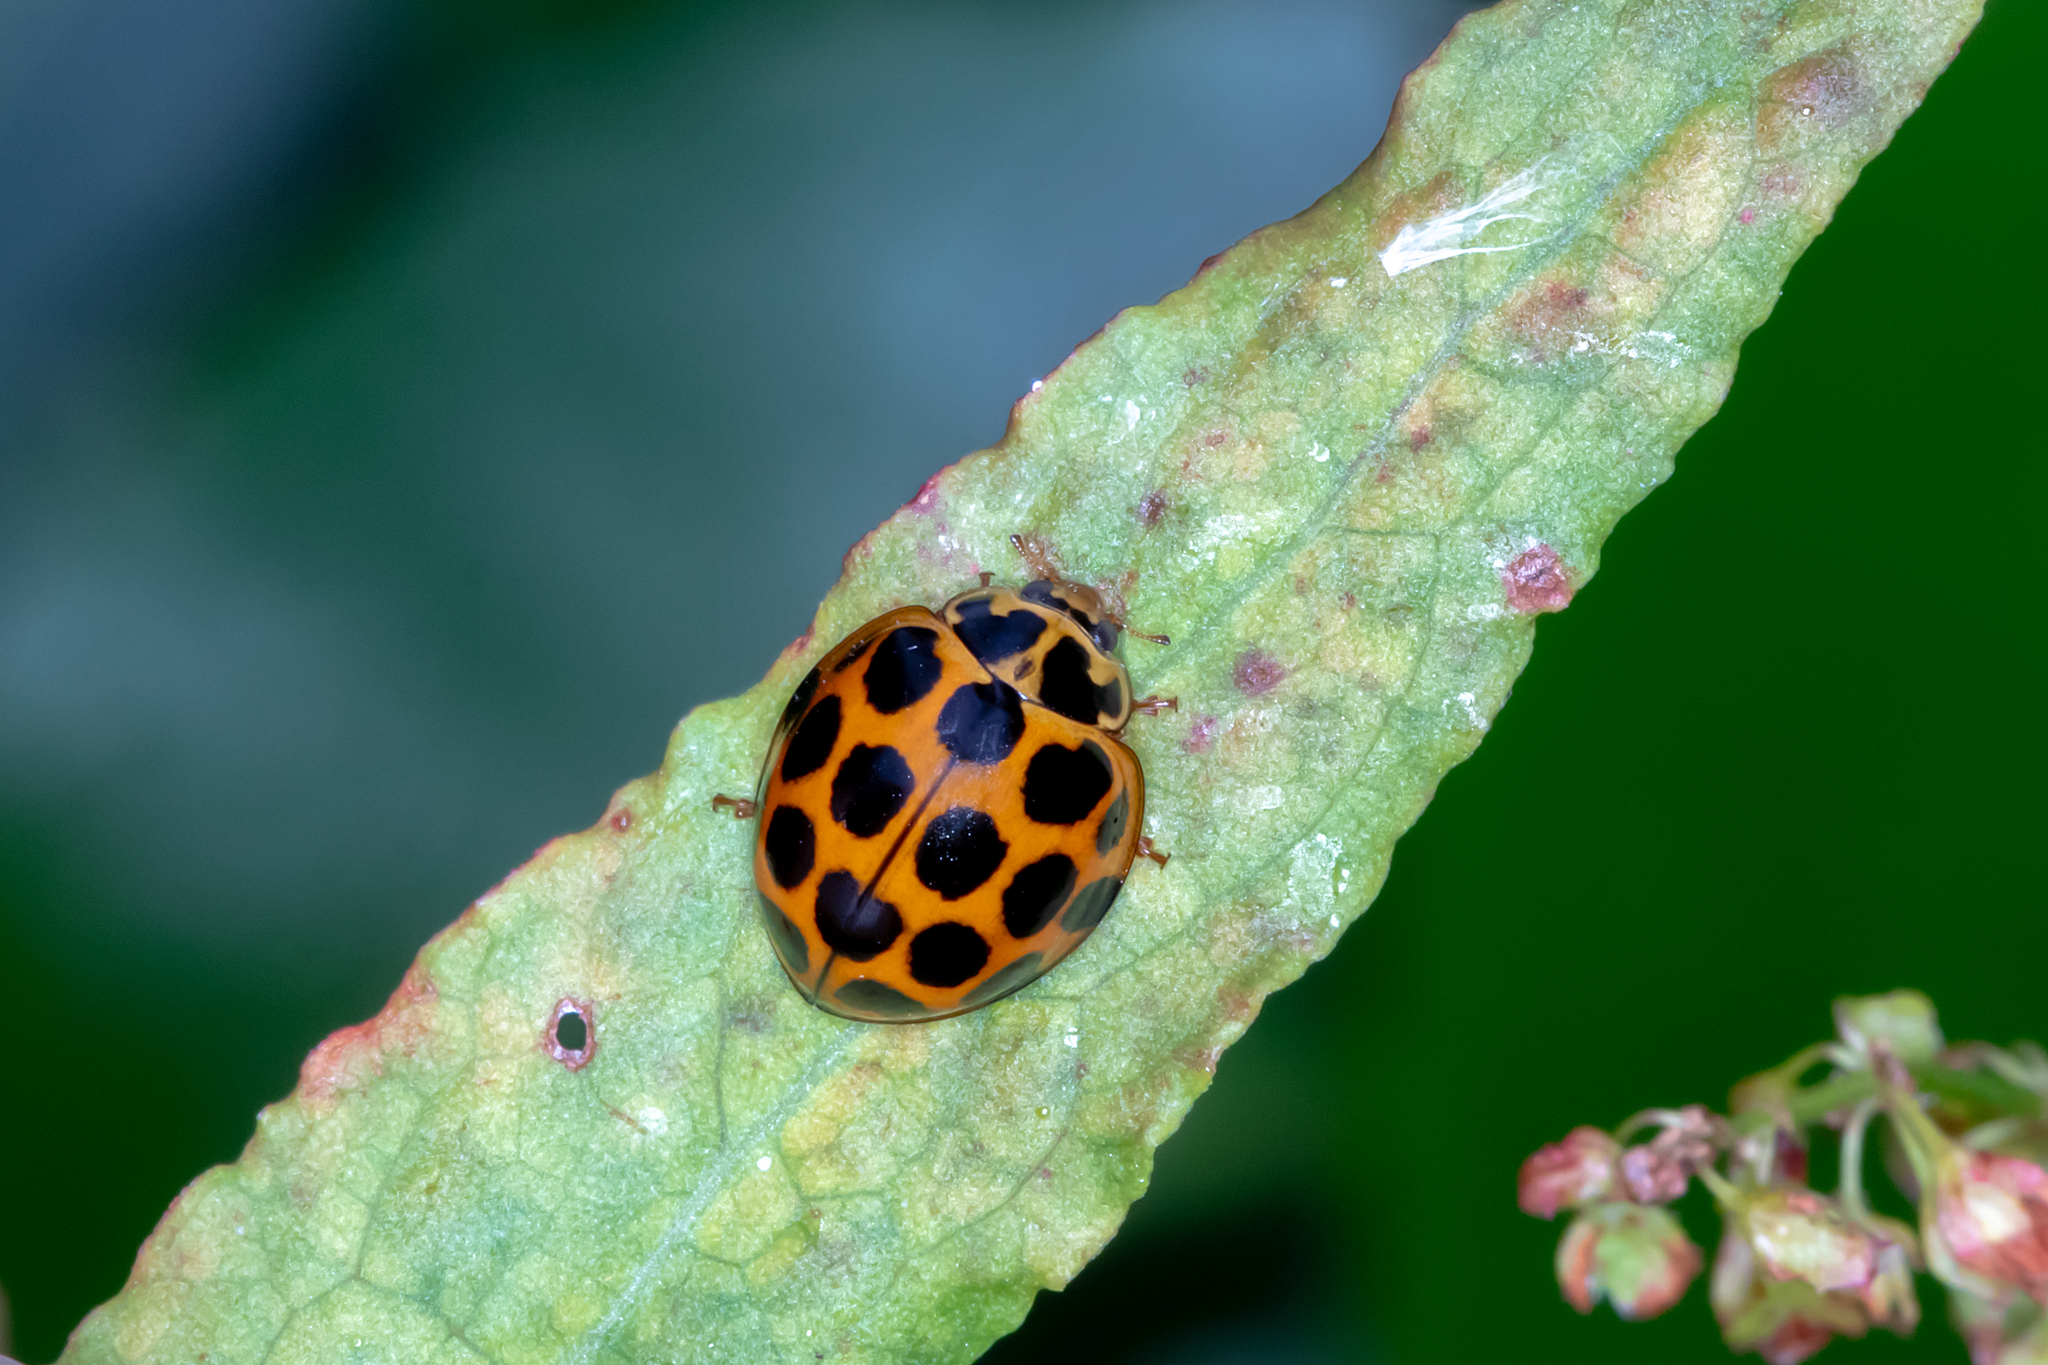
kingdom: Animalia
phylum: Arthropoda
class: Insecta
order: Coleoptera
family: Coccinellidae
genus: Harmonia
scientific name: Harmonia conformis
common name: Common spotted ladybird beetle
